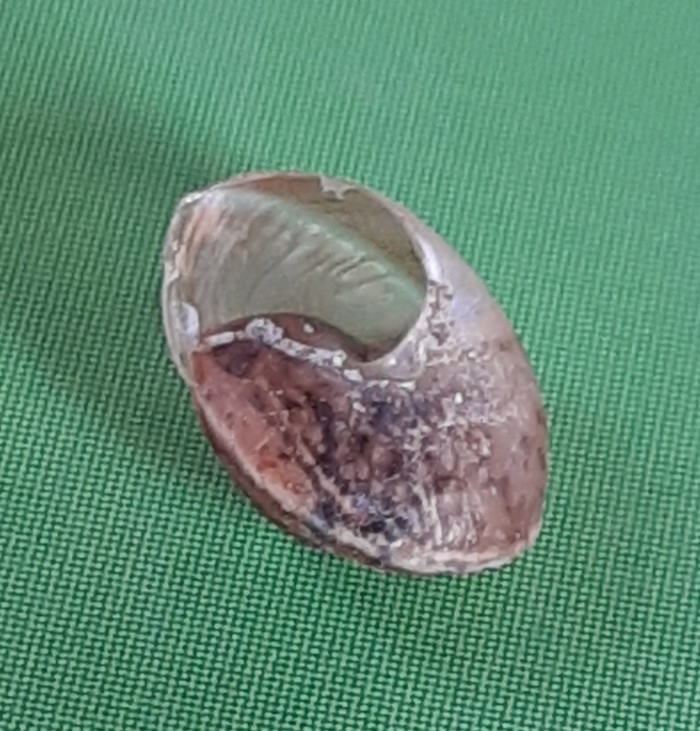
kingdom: Animalia
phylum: Mollusca
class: Gastropoda
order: Stylommatophora
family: Hygromiidae
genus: Hygromia
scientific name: Hygromia cinctella
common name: Girdled snail
